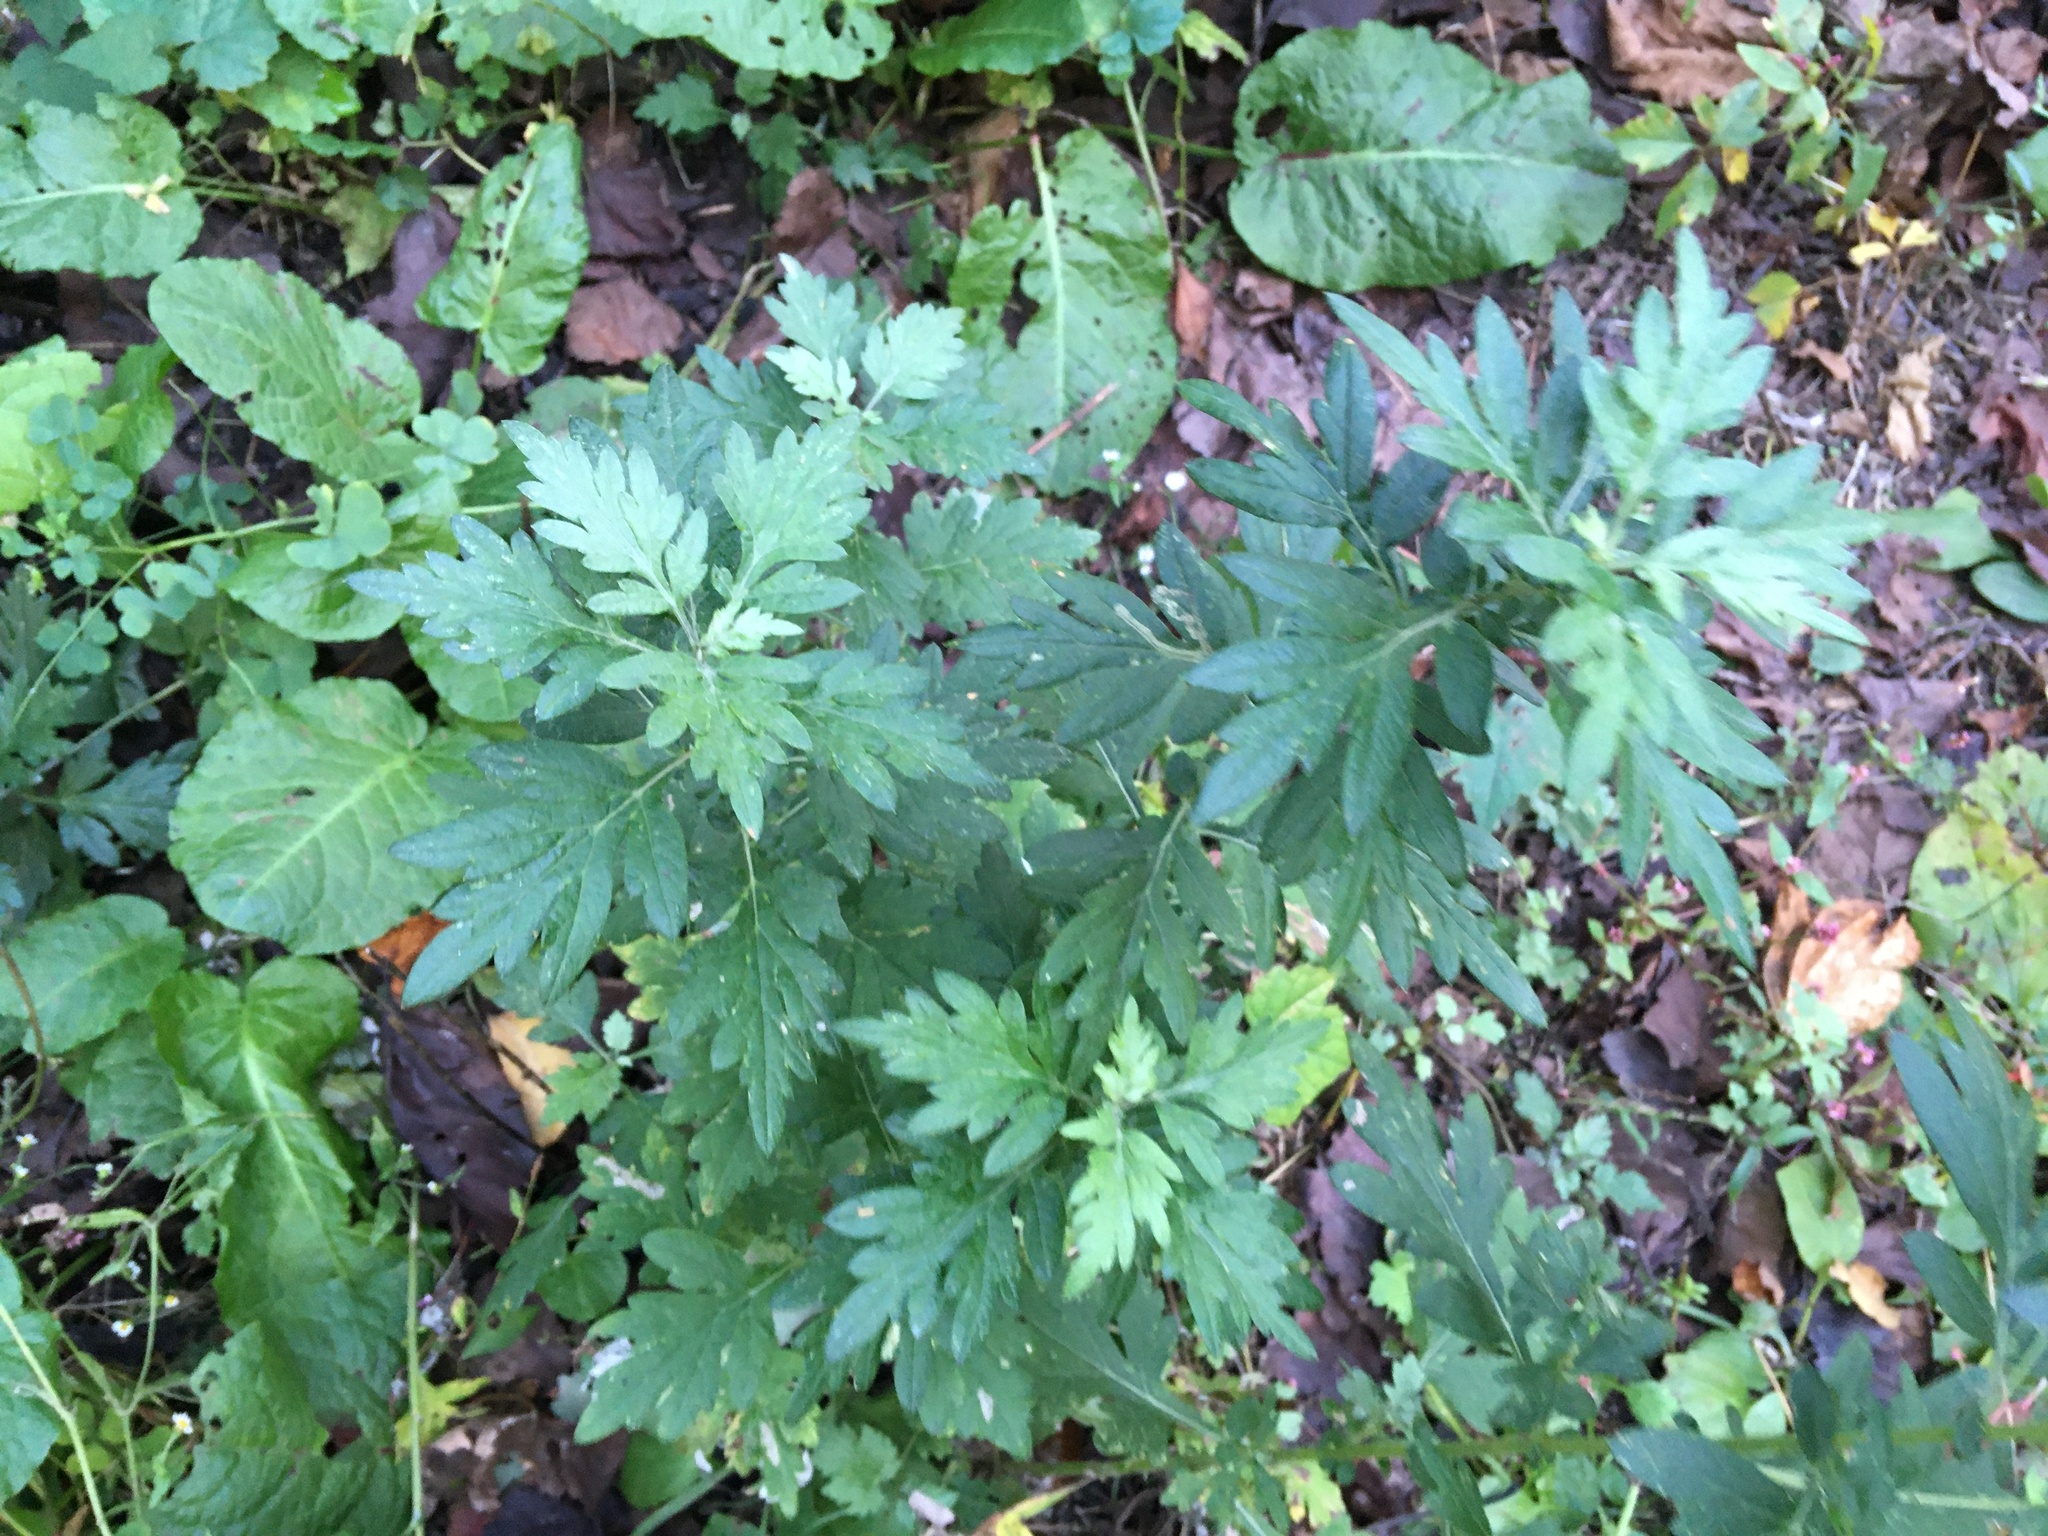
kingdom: Plantae
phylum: Tracheophyta
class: Magnoliopsida
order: Asterales
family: Asteraceae
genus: Artemisia
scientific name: Artemisia vulgaris
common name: Mugwort
